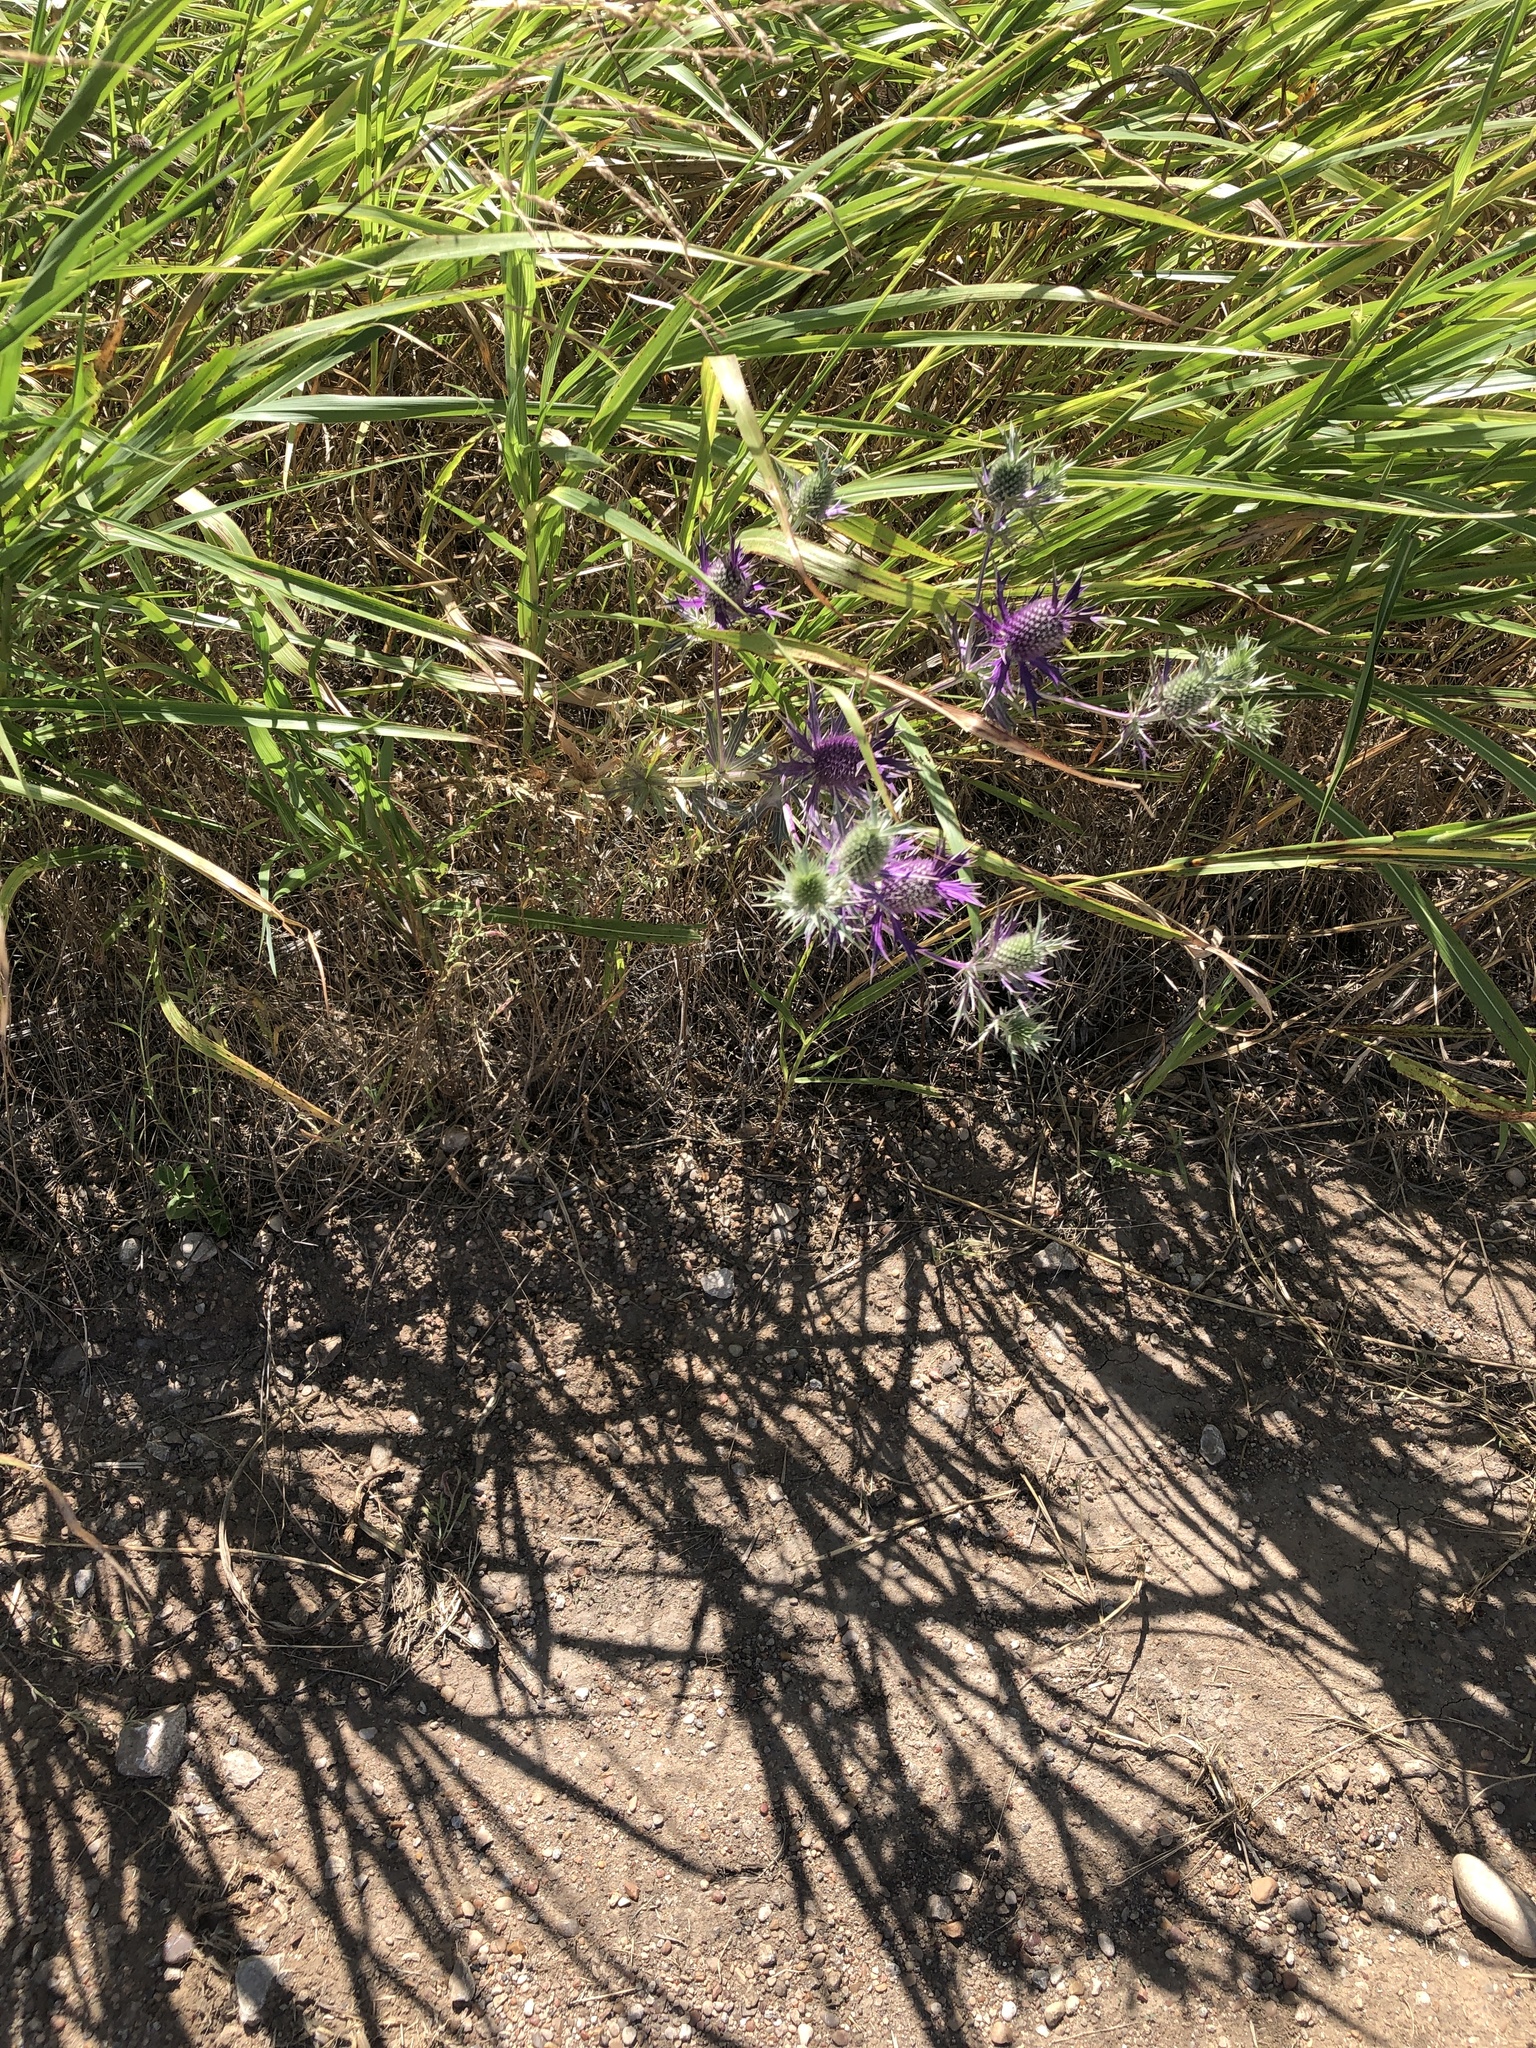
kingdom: Plantae
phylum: Tracheophyta
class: Magnoliopsida
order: Apiales
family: Apiaceae
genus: Eryngium
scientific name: Eryngium leavenworthii
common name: Leavenworth's eryngo
